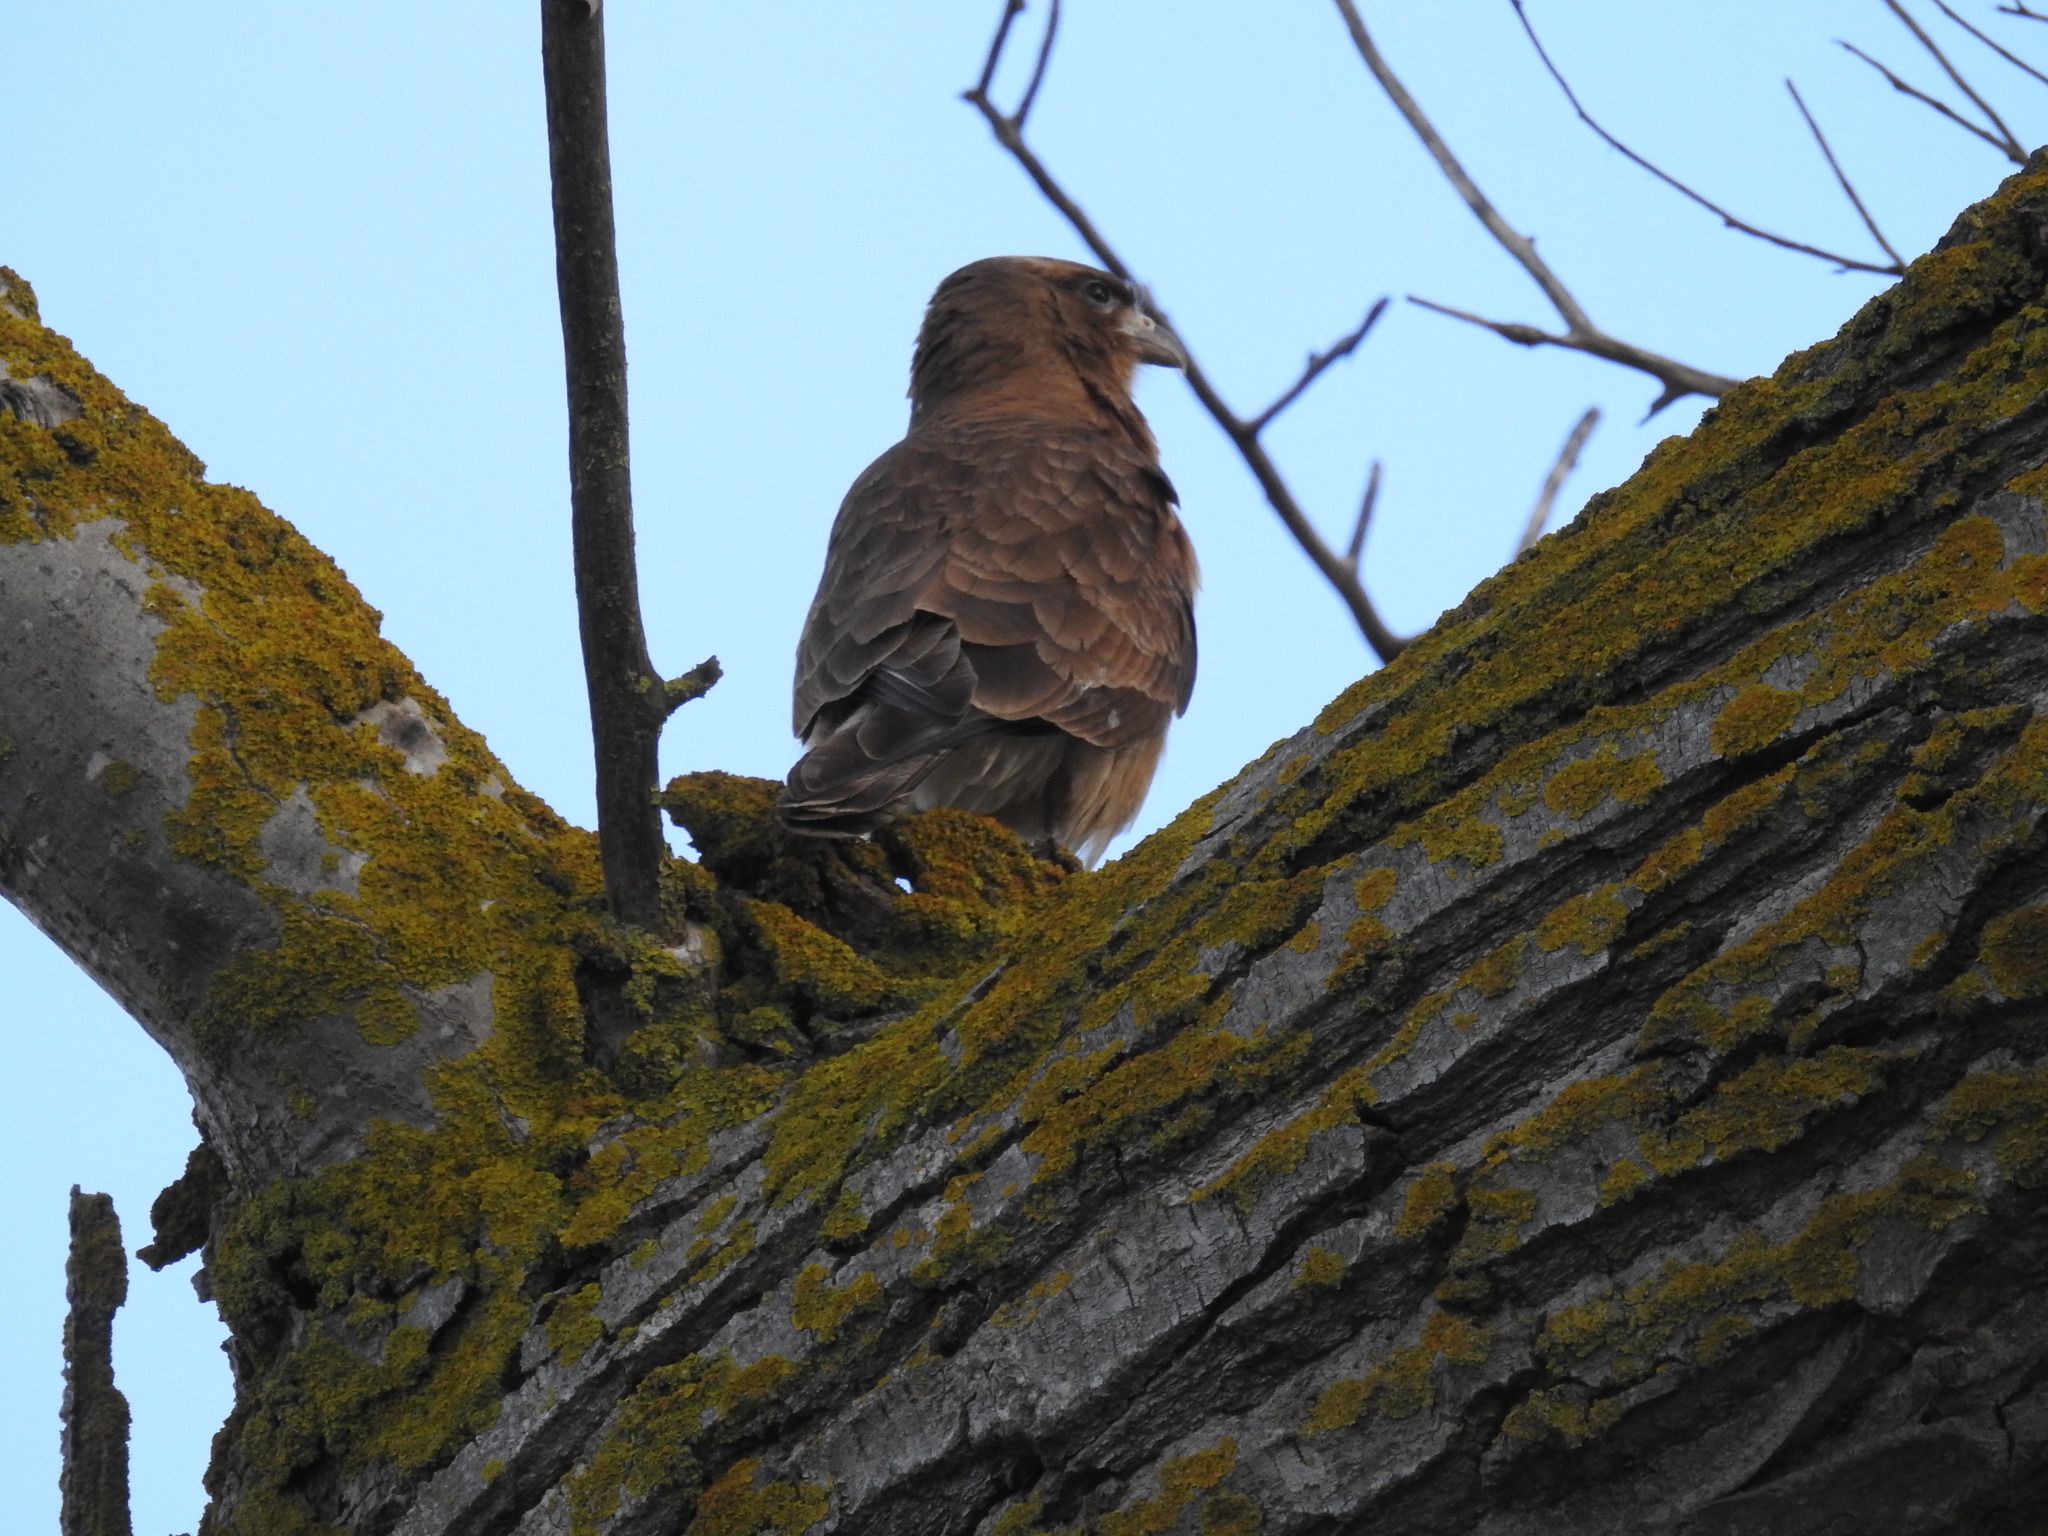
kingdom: Animalia
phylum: Chordata
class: Aves
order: Falconiformes
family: Falconidae
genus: Daptrius
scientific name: Daptrius
